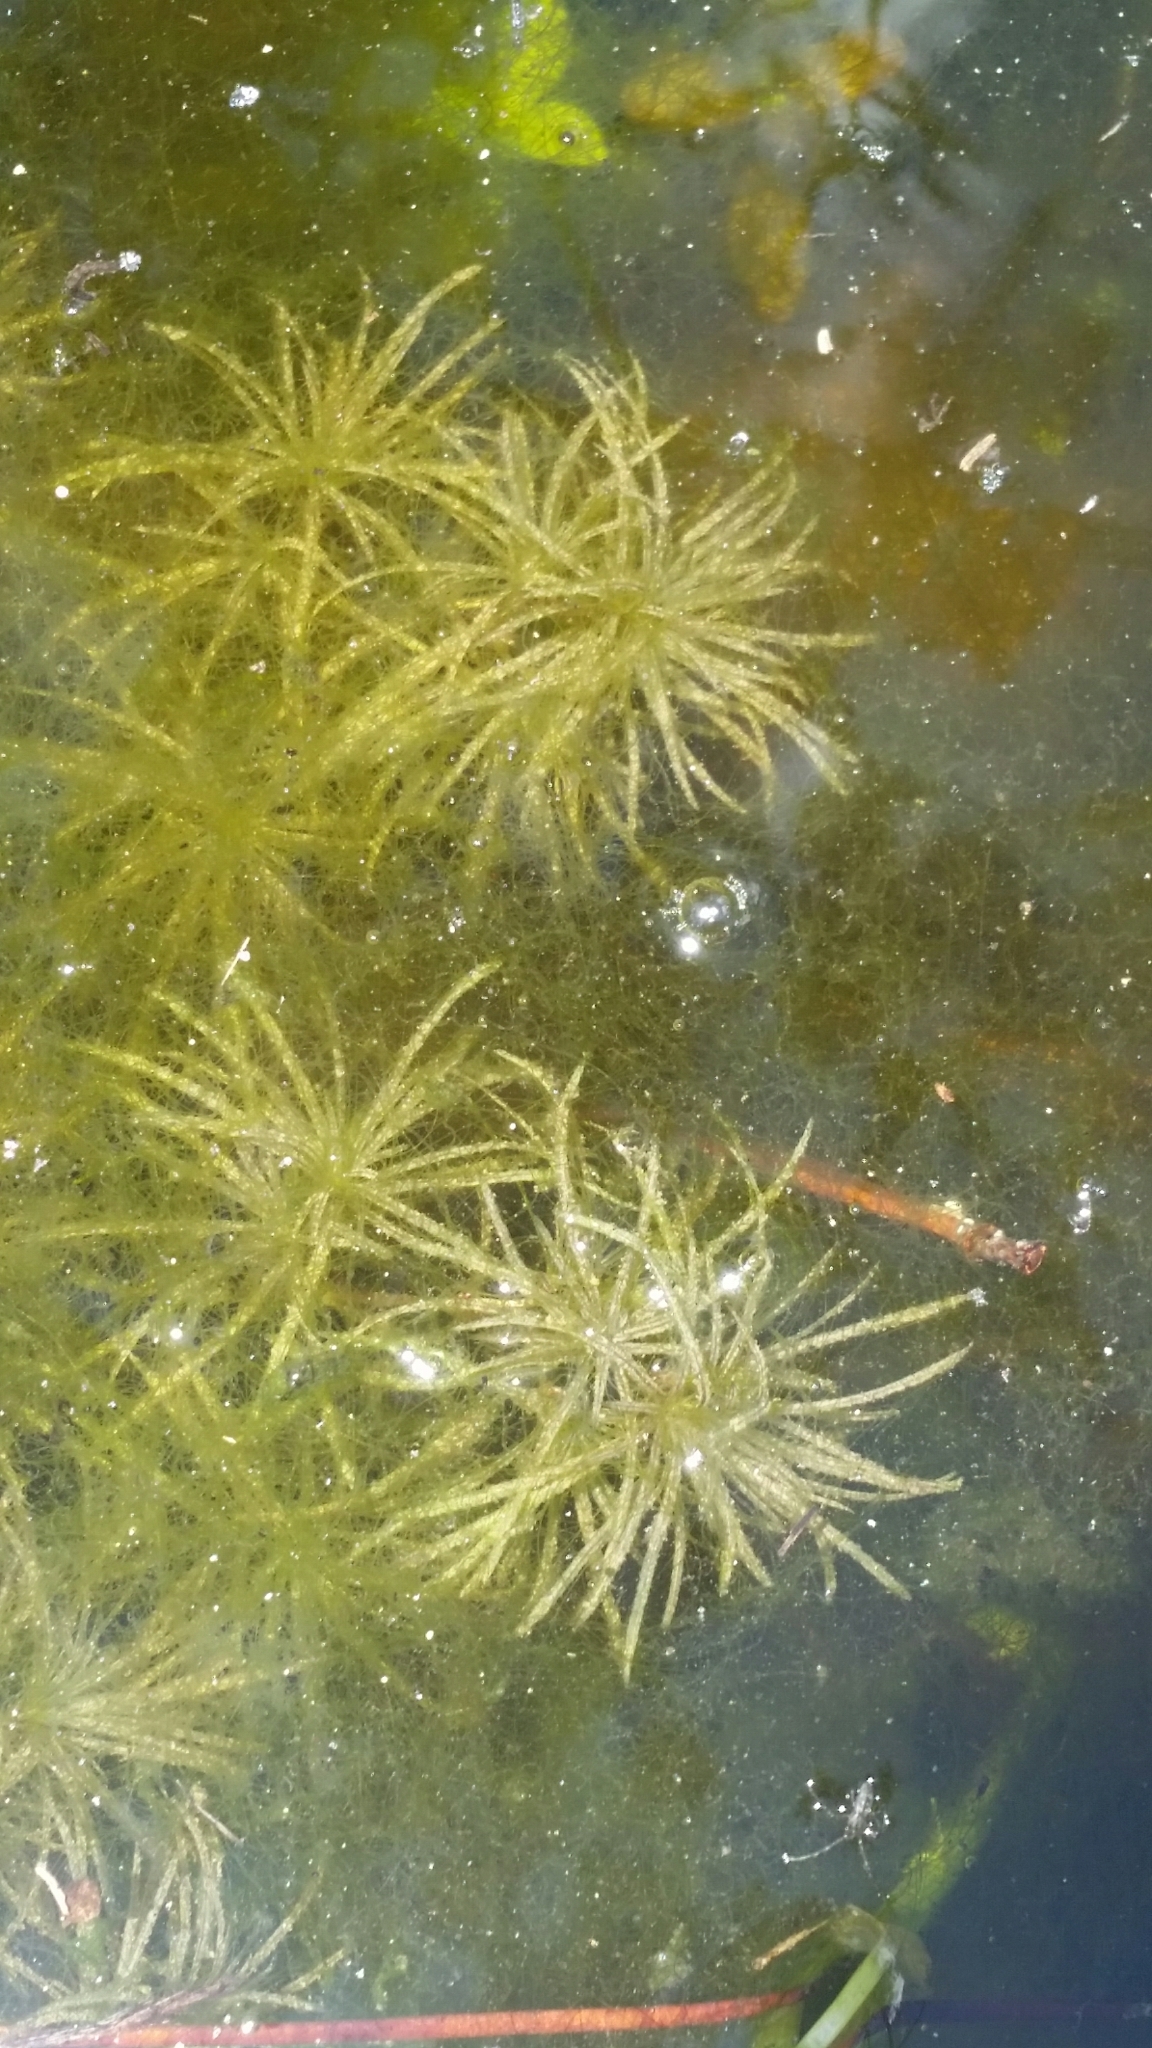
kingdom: Plantae
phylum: Tracheophyta
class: Liliopsida
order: Alismatales
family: Hydrocharitaceae
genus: Najas
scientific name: Najas wrightiana
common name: Wright's waternymph
